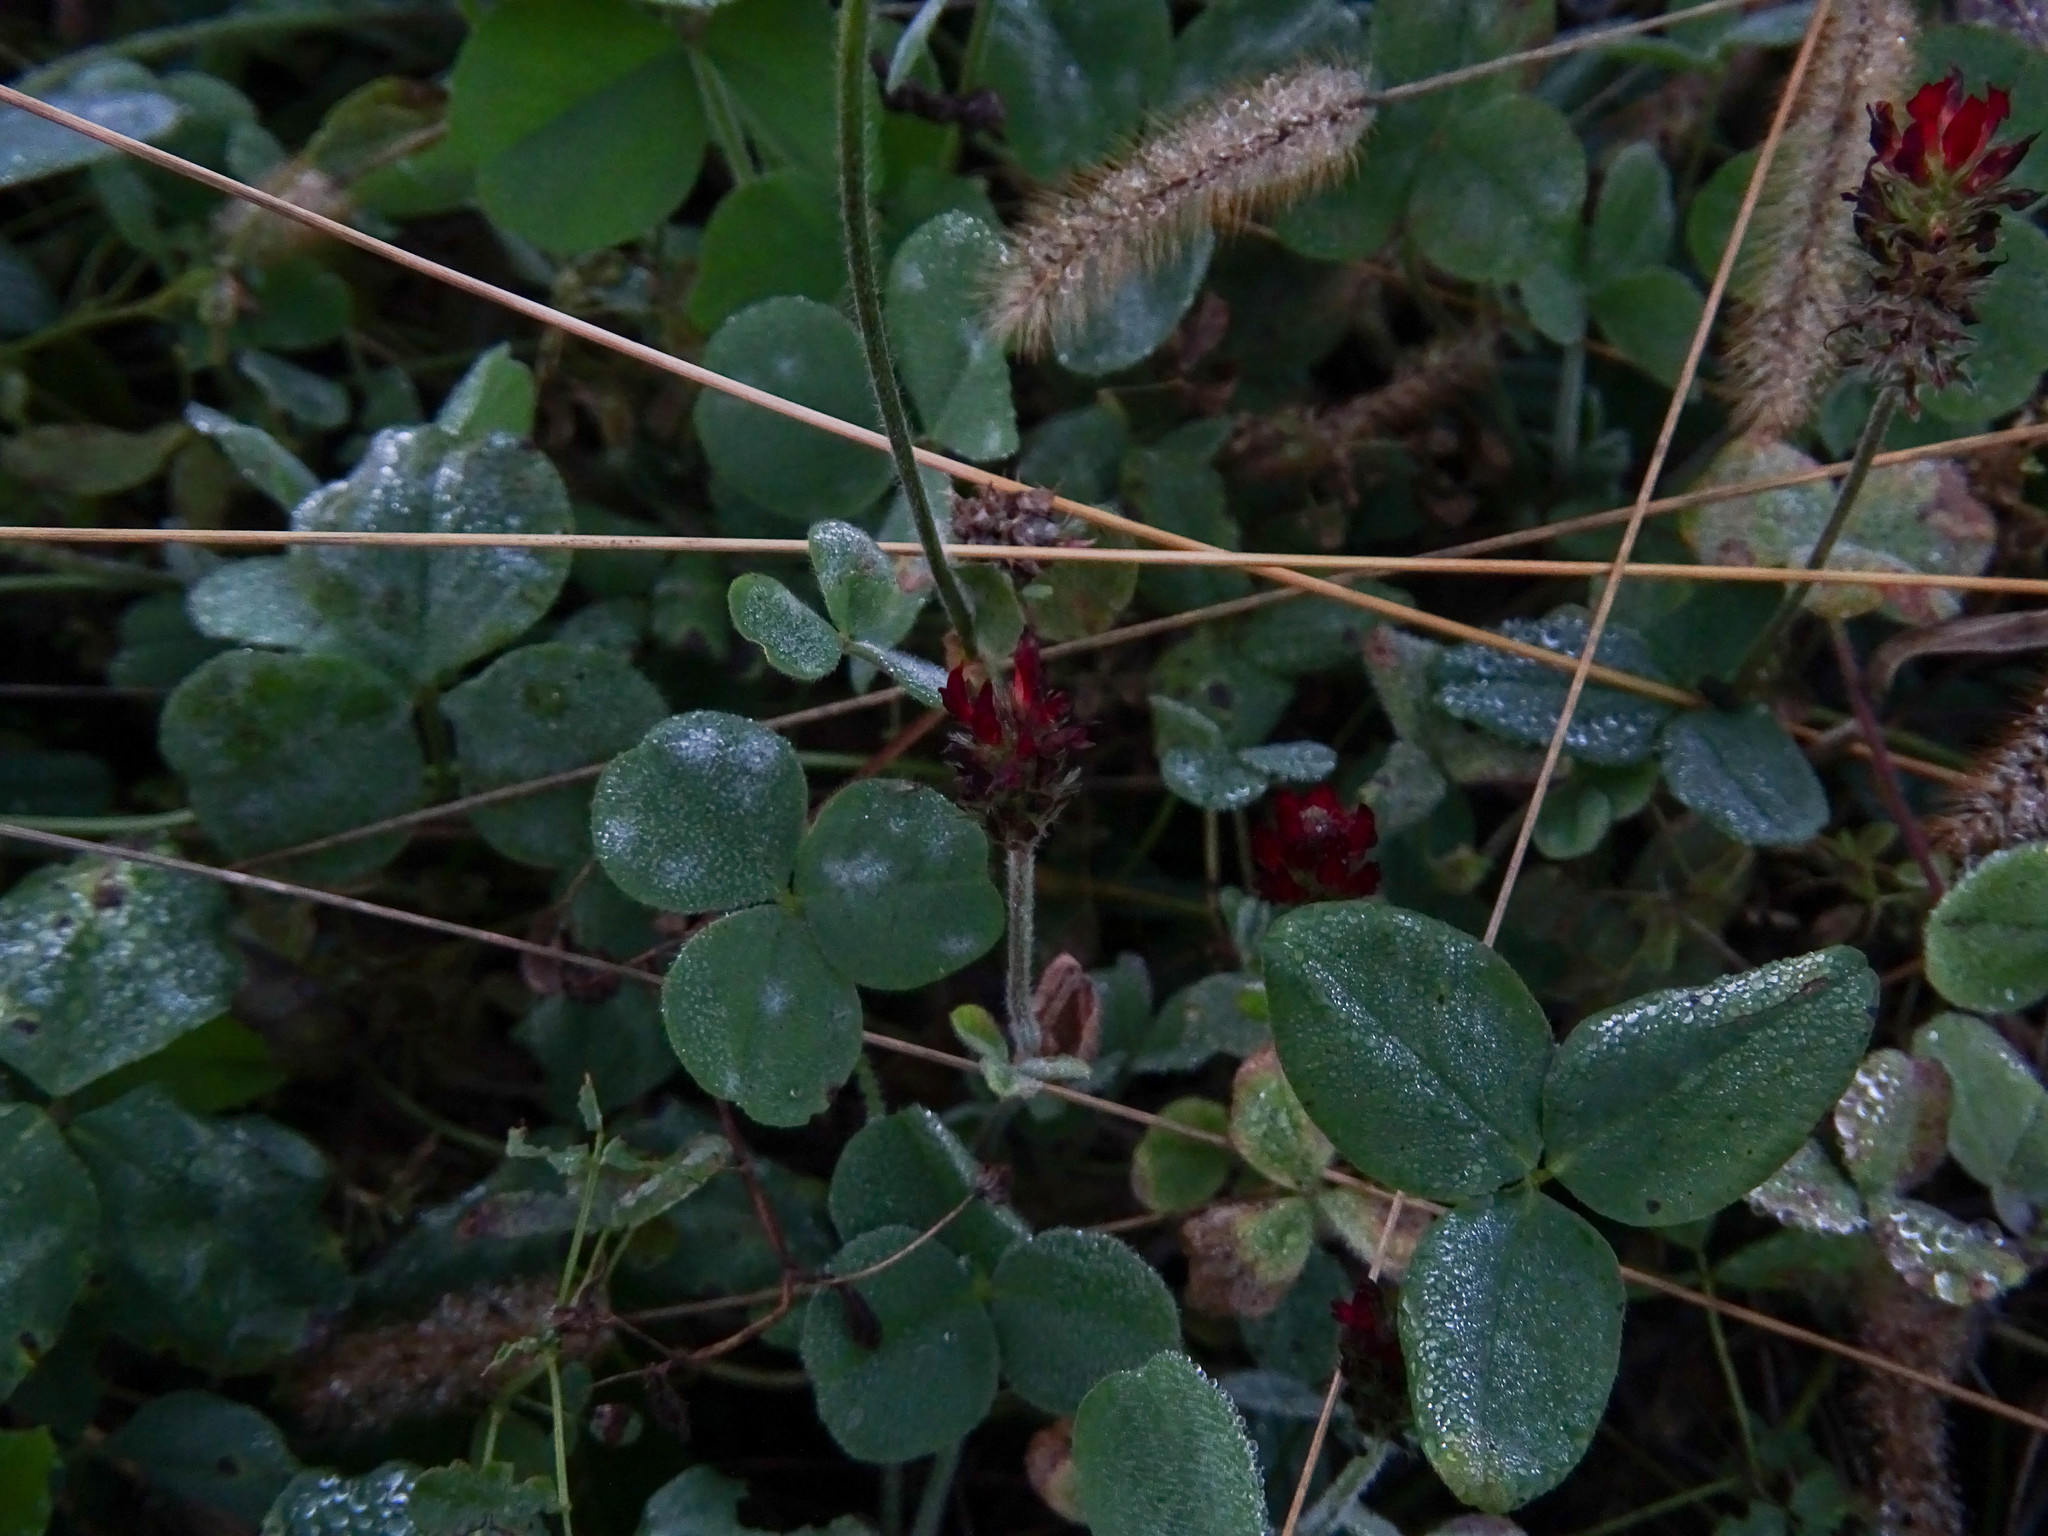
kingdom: Plantae
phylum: Tracheophyta
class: Magnoliopsida
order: Fabales
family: Fabaceae
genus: Trifolium
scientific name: Trifolium incarnatum
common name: Crimson clover
